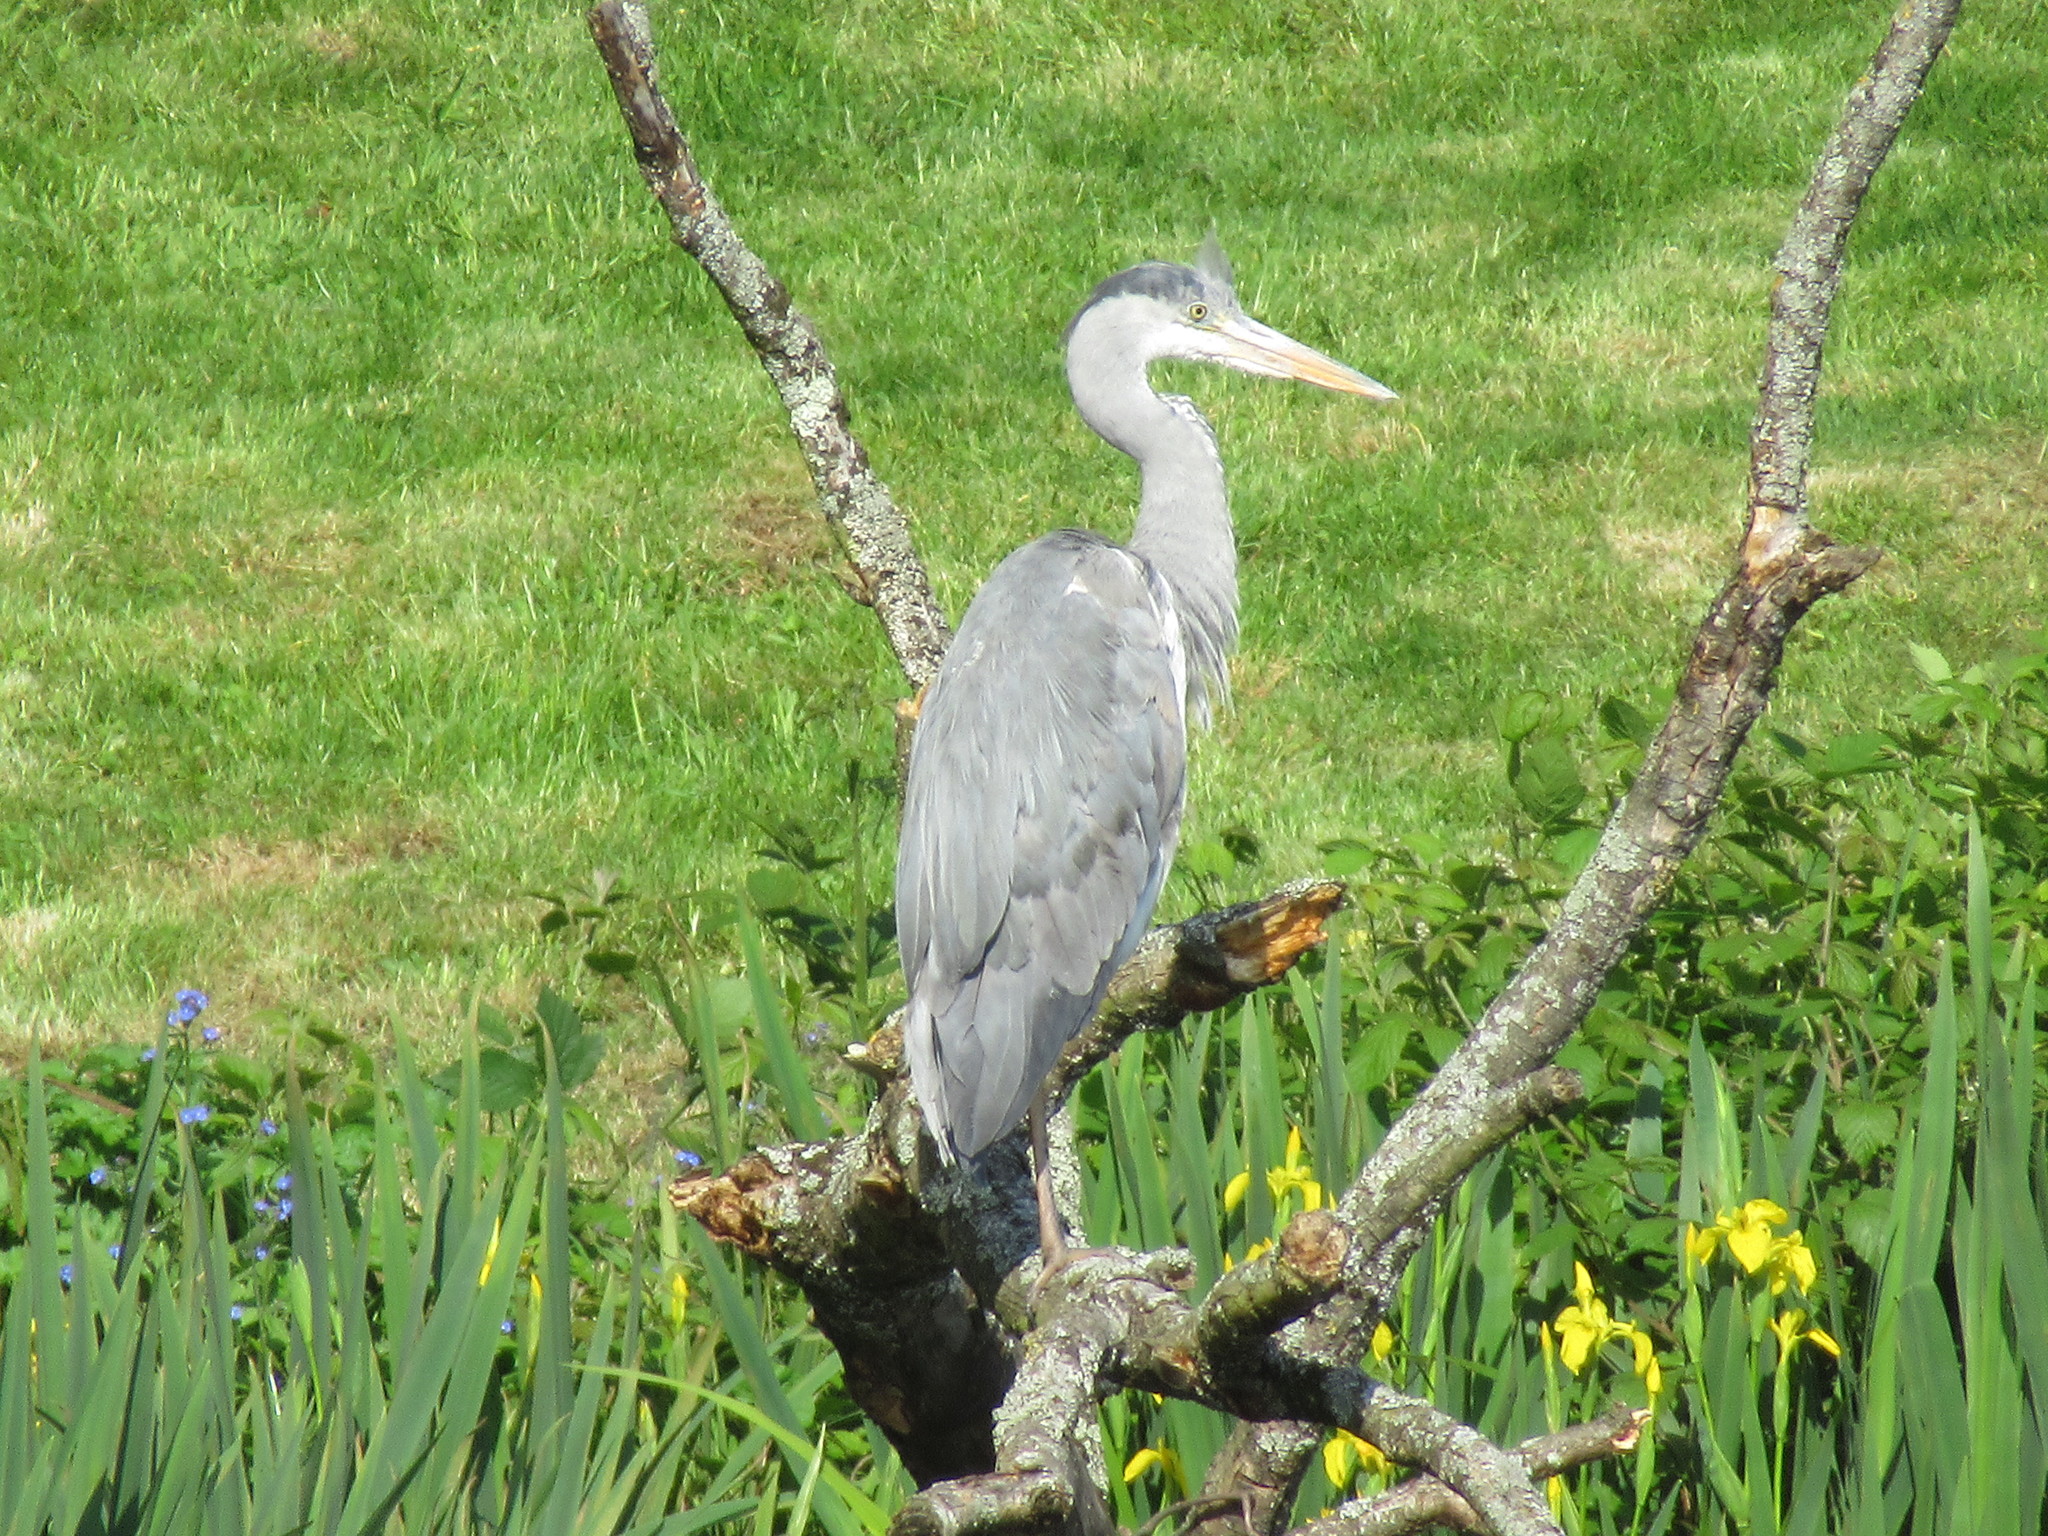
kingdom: Animalia
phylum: Chordata
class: Aves
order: Pelecaniformes
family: Ardeidae
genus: Ardea
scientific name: Ardea cinerea
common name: Grey heron
